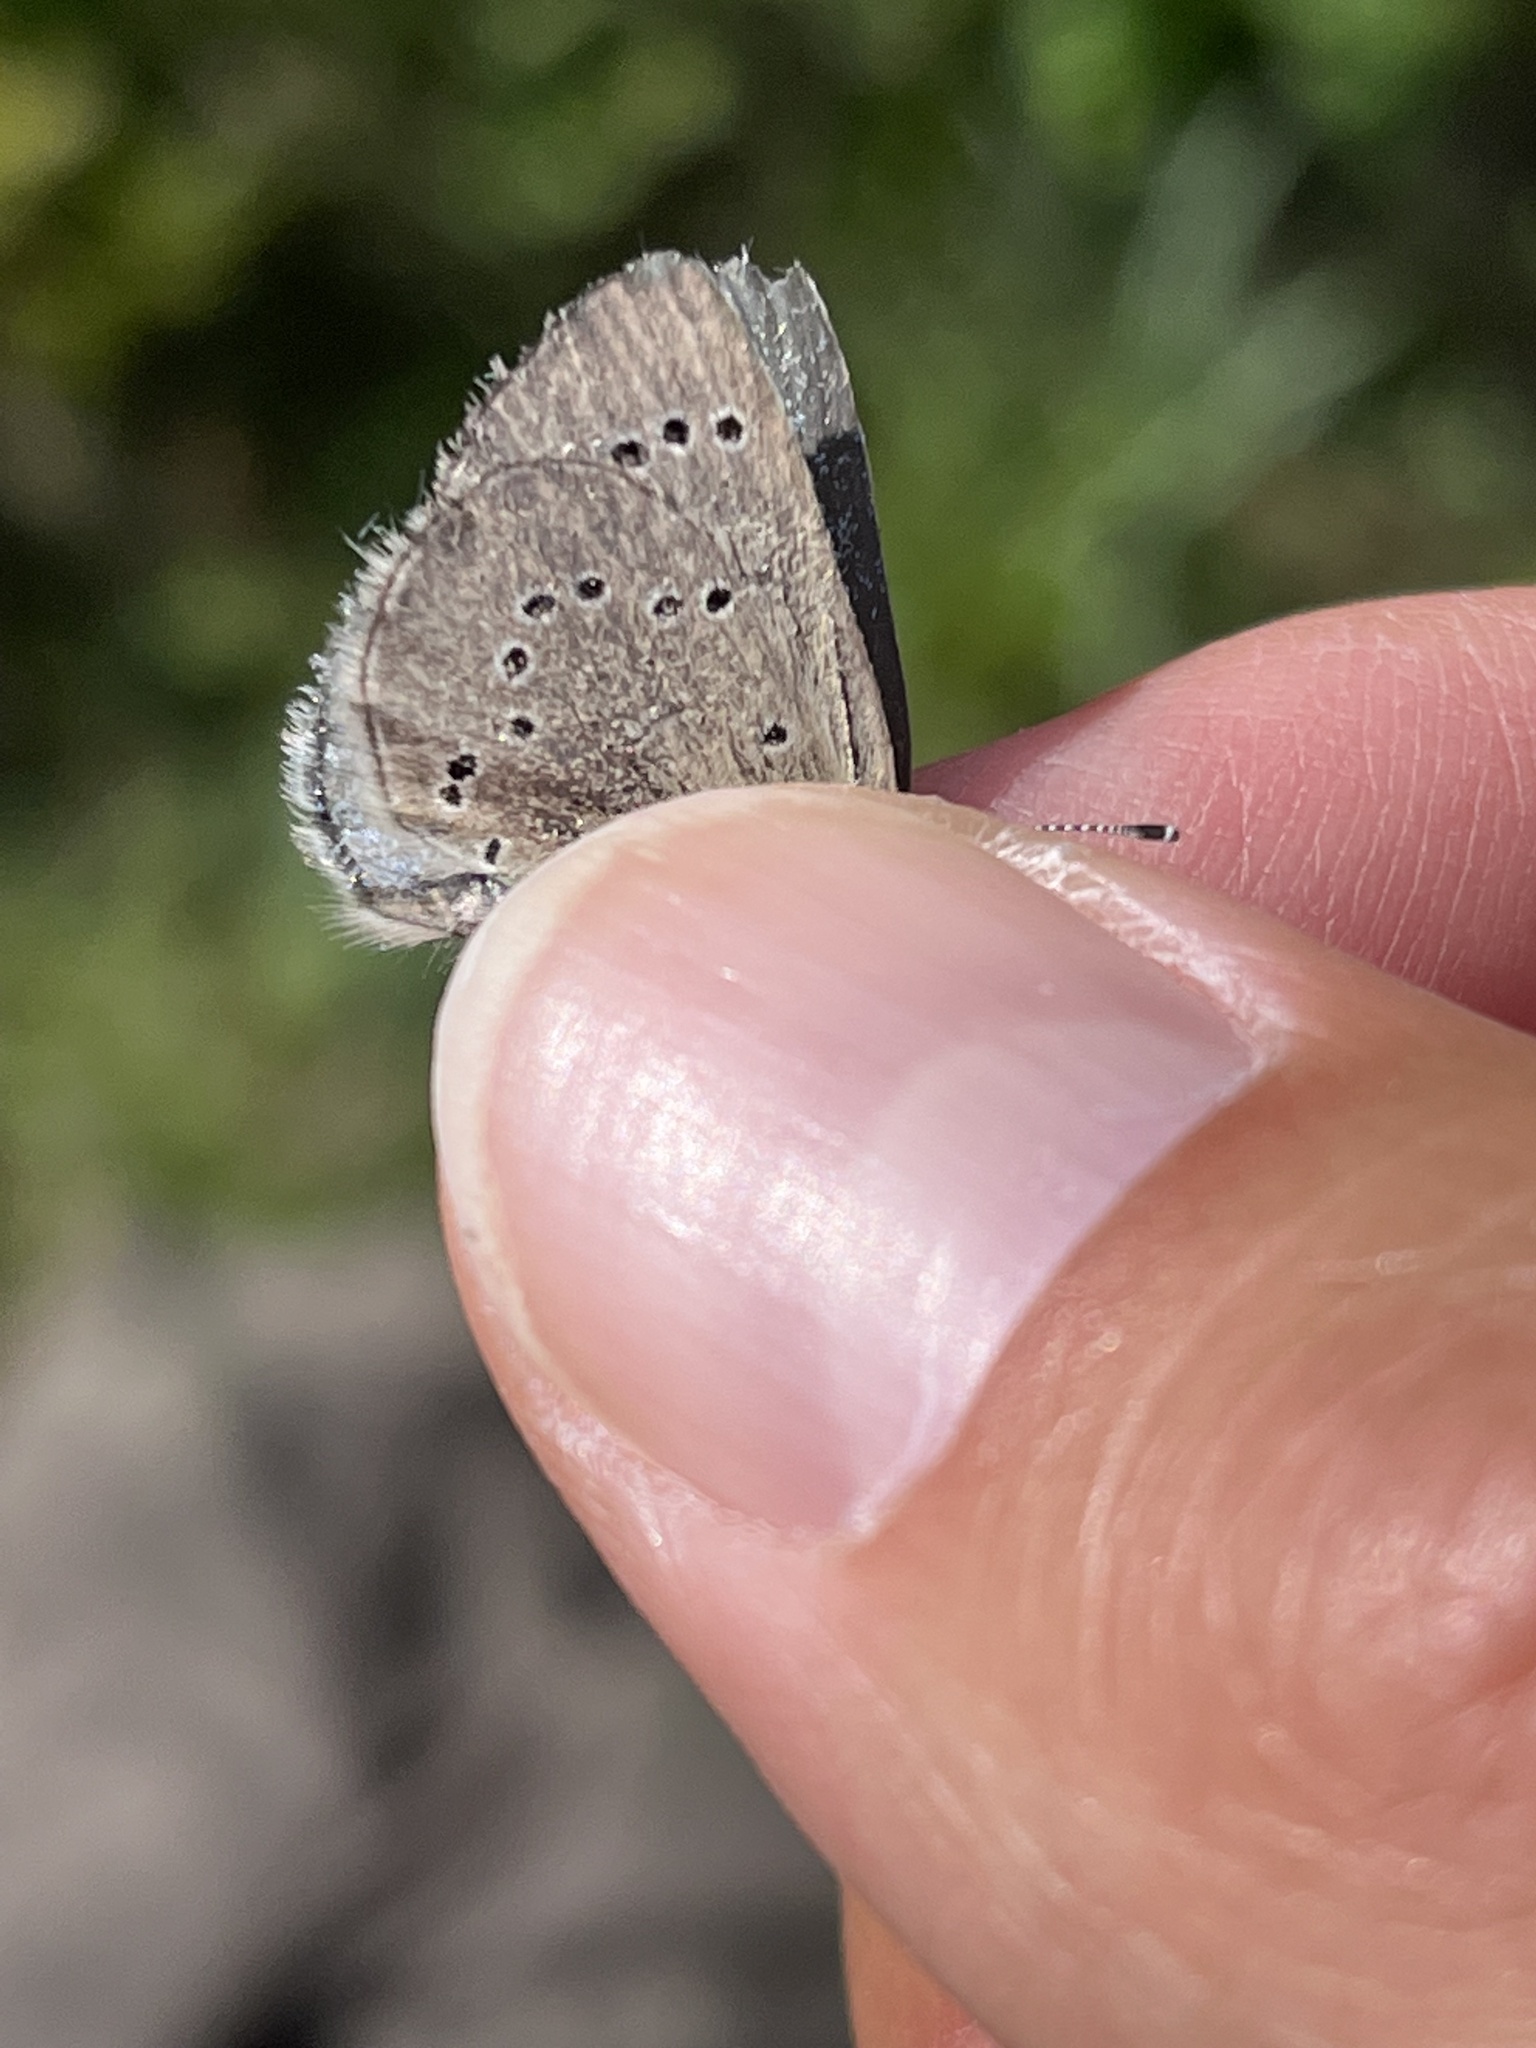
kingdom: Animalia
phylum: Arthropoda
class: Insecta
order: Lepidoptera
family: Lycaenidae
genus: Glaucopsyche
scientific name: Glaucopsyche lygdamus
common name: Silvery blue
